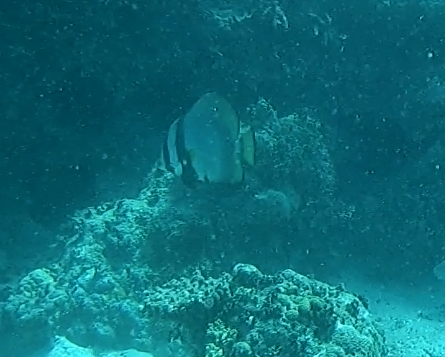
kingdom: Animalia
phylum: Chordata
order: Perciformes
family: Ephippidae
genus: Platax
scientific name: Platax pinnatus
